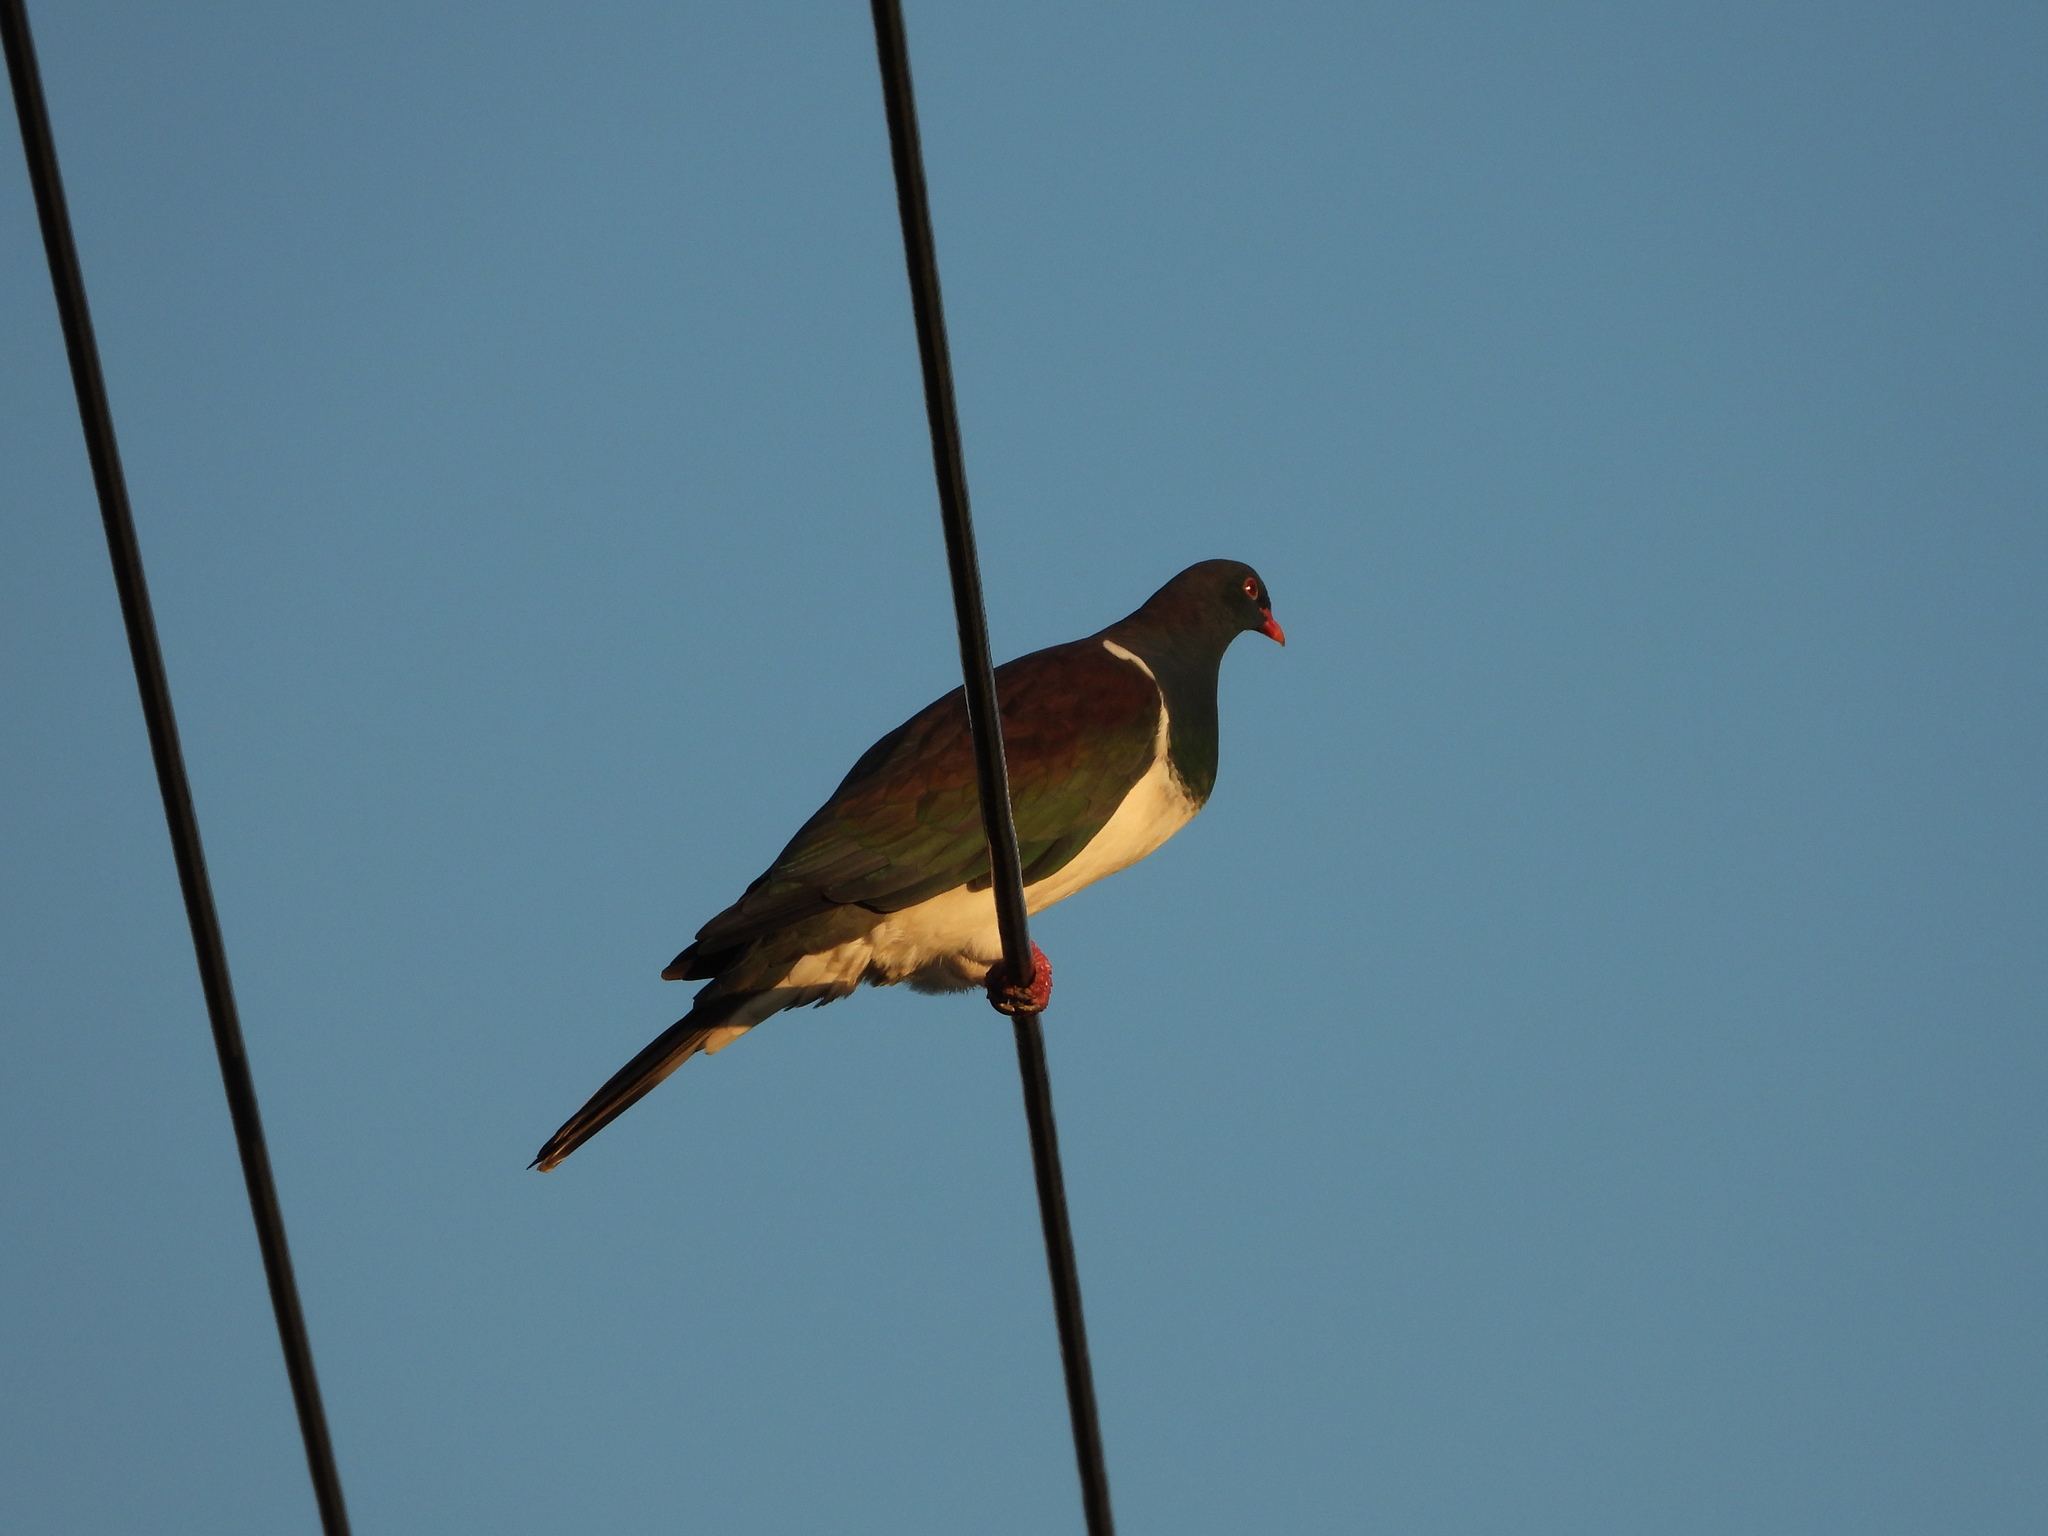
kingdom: Animalia
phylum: Chordata
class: Aves
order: Columbiformes
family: Columbidae
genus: Hemiphaga
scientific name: Hemiphaga novaeseelandiae
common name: New zealand pigeon
